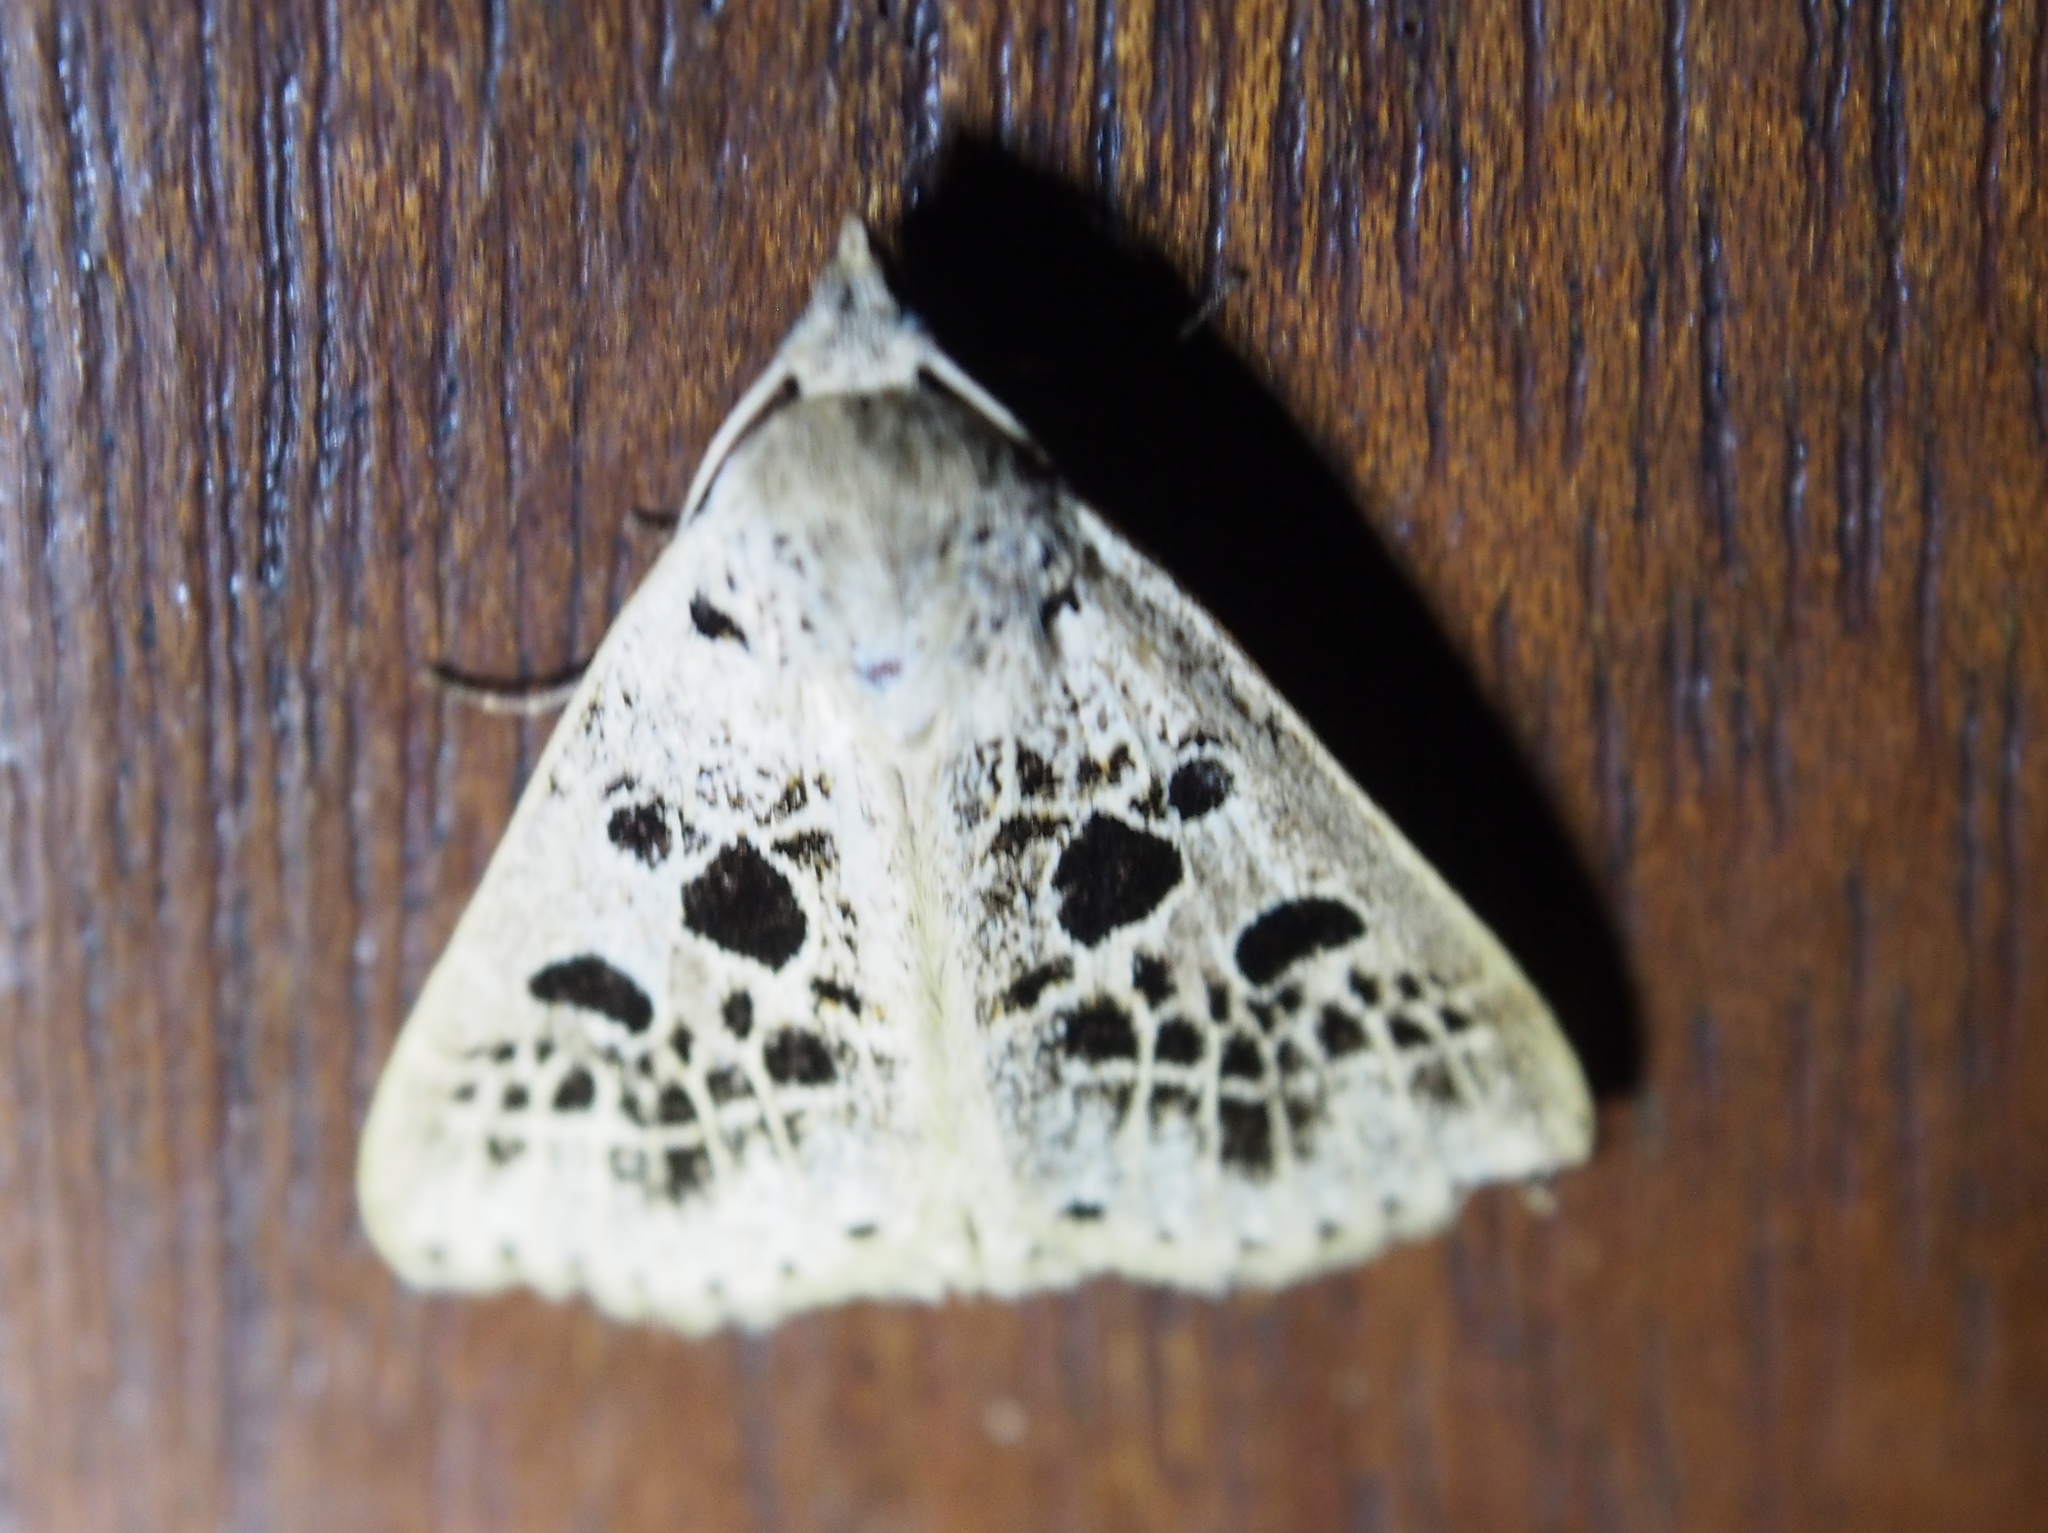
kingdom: Animalia
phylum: Arthropoda
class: Insecta
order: Lepidoptera
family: Erebidae
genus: Scolecocampa
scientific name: Scolecocampa Herminodes atrosignata
